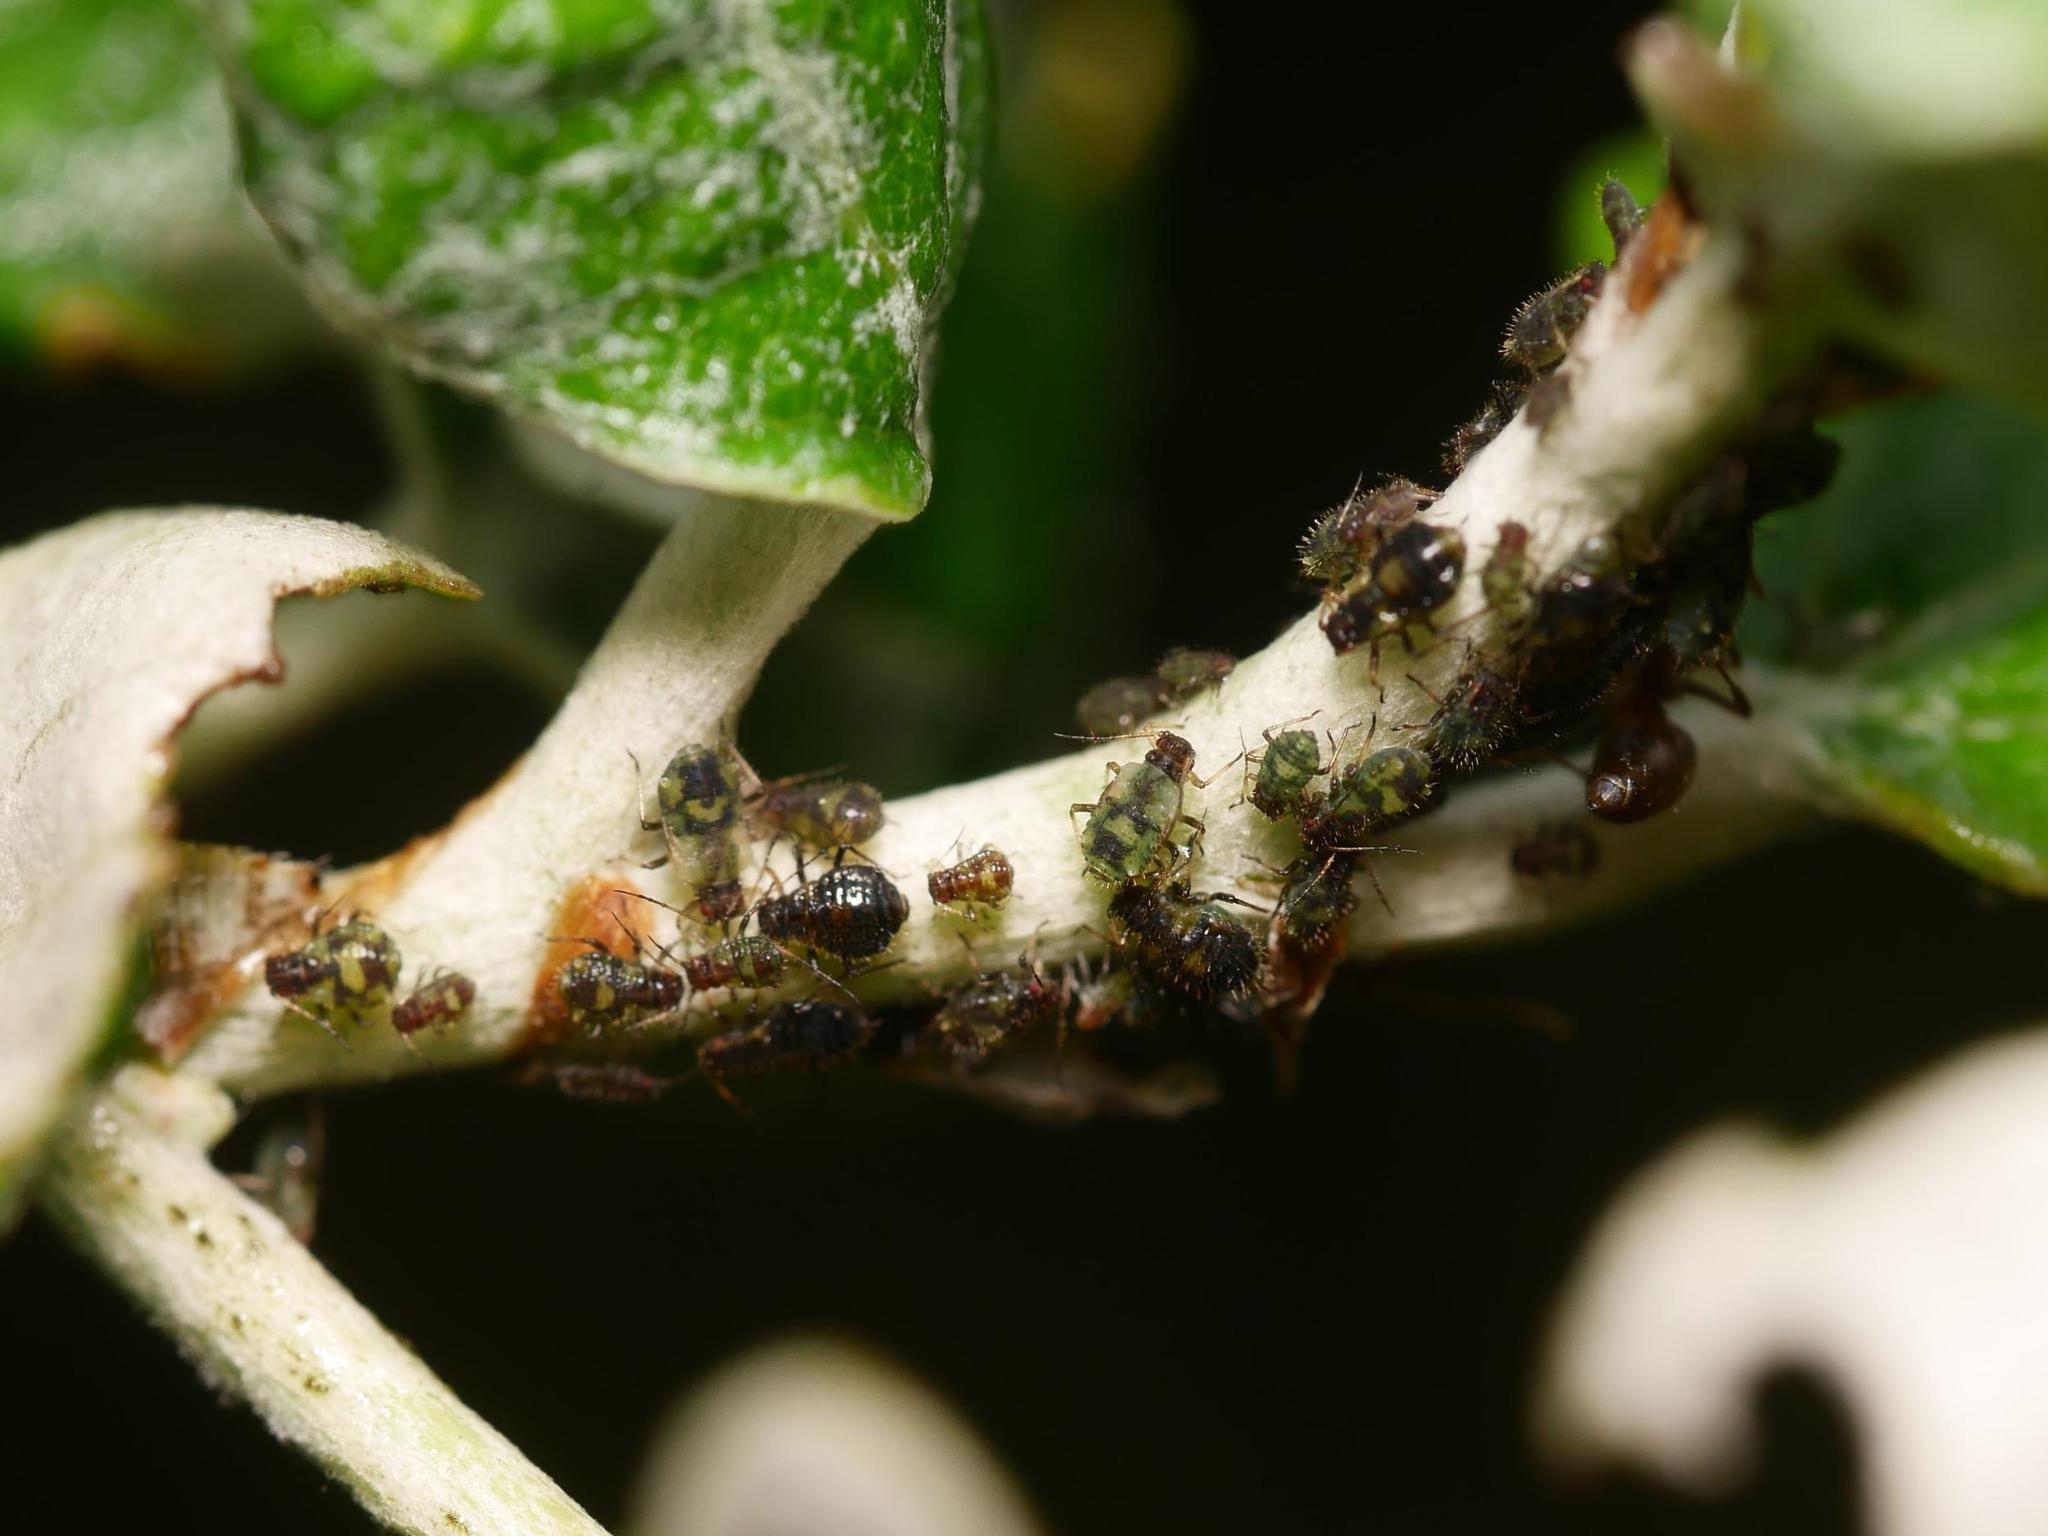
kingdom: Animalia
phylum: Arthropoda
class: Insecta
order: Hemiptera
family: Aphididae
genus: Chaitophorus
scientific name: Chaitophorus populeti
